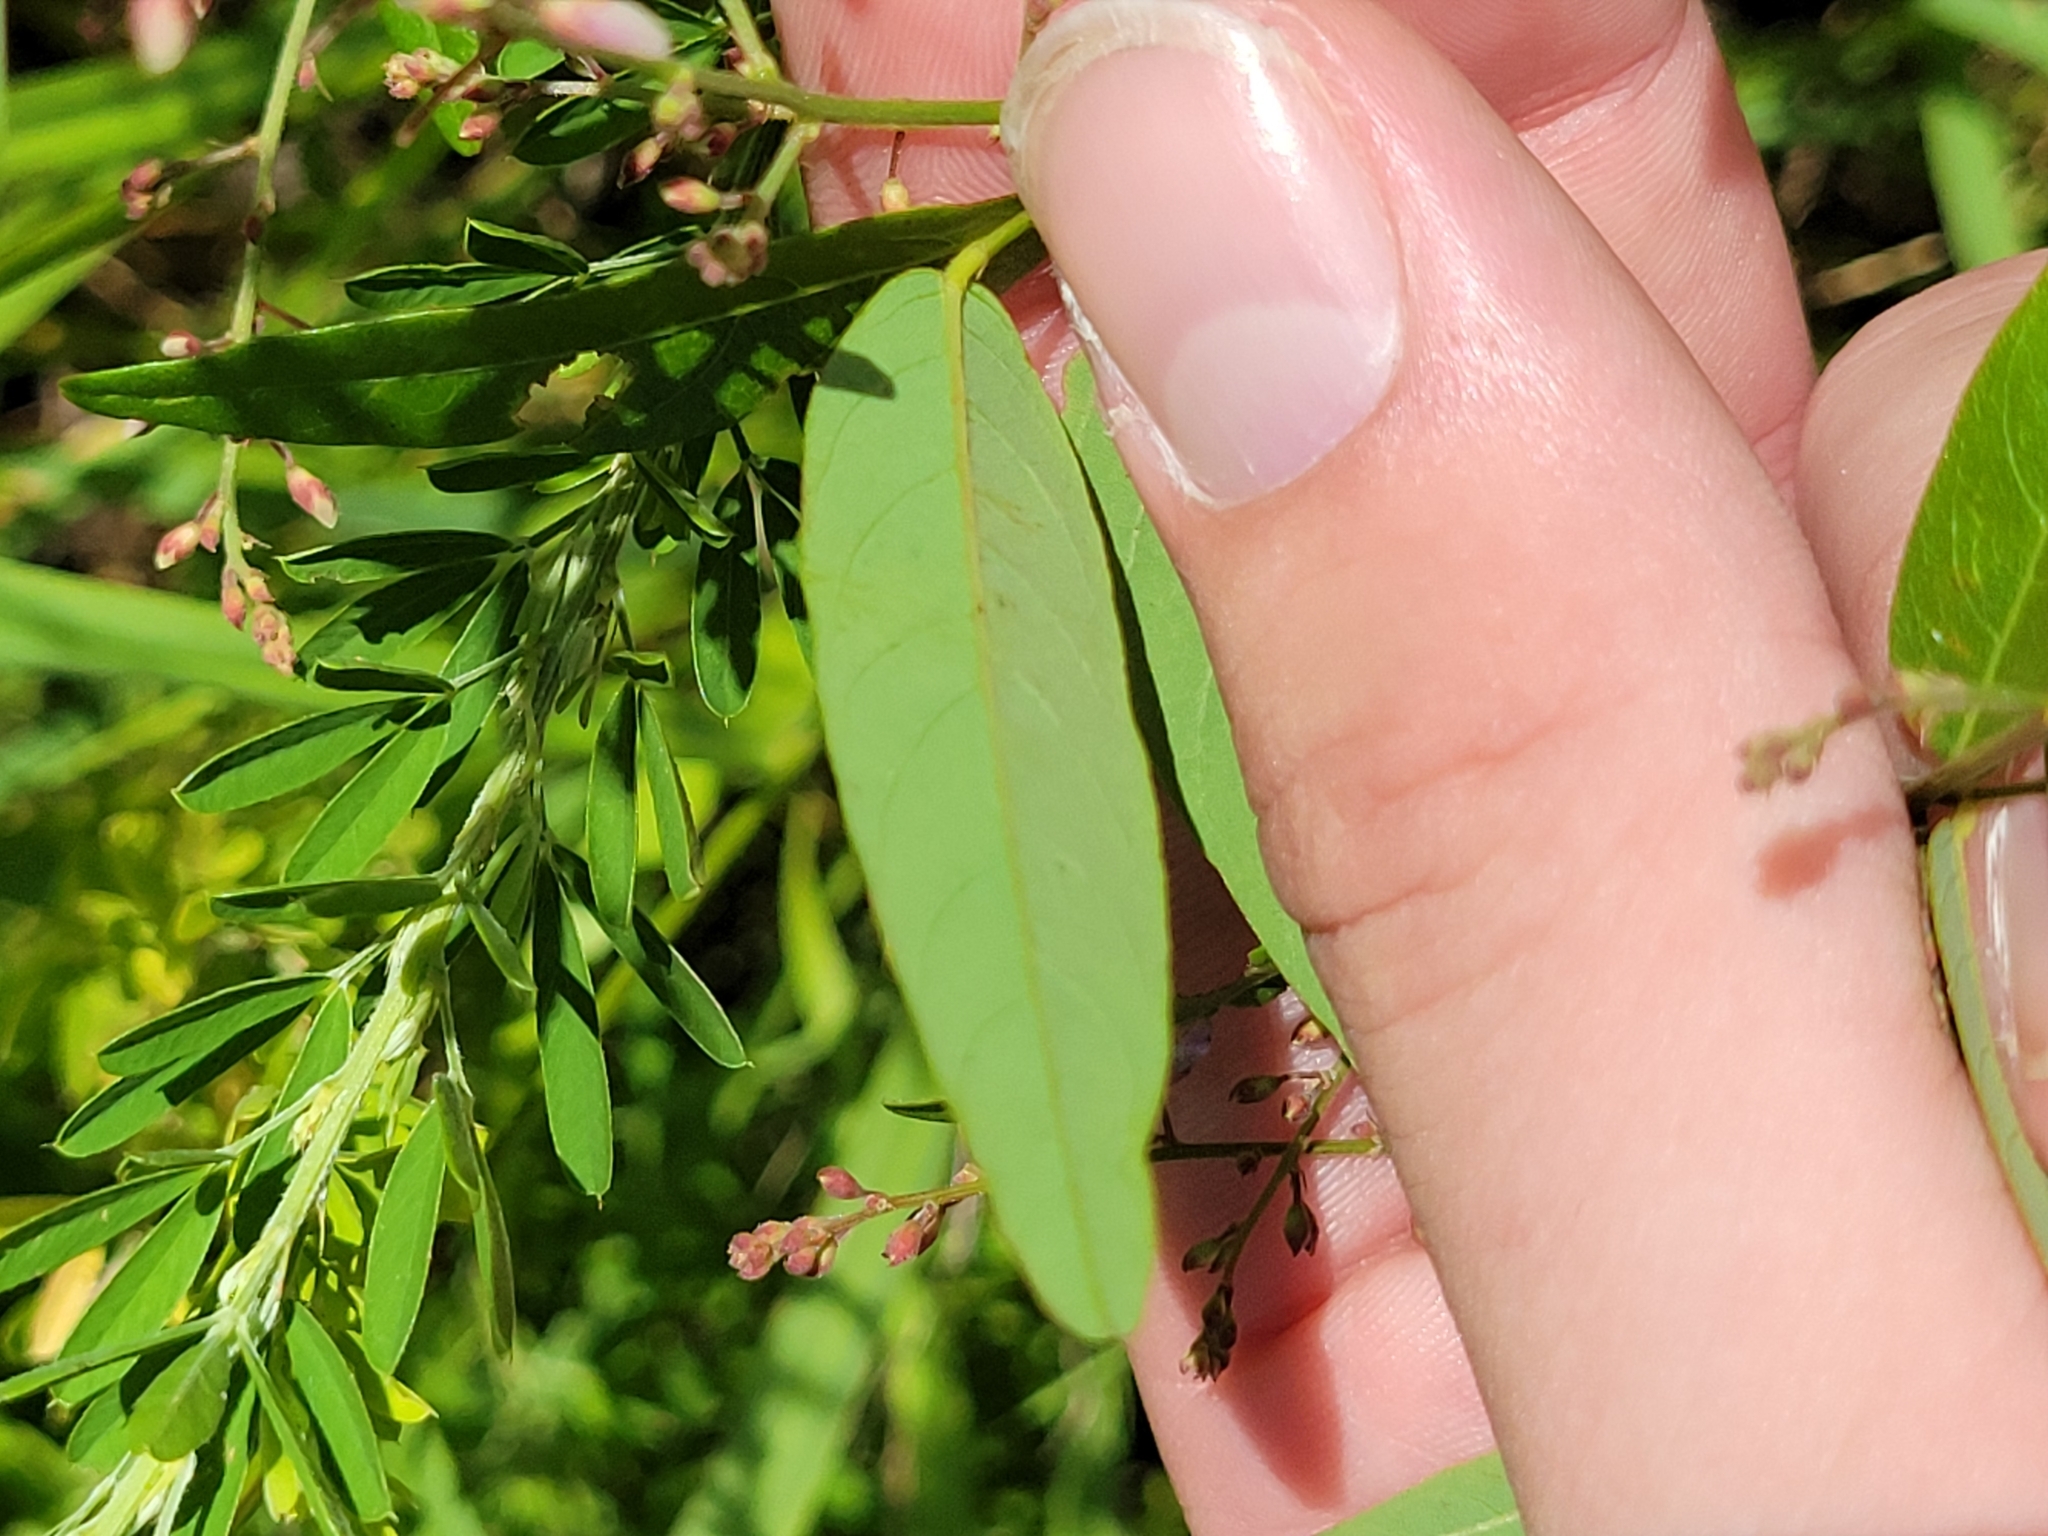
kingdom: Plantae
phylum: Tracheophyta
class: Magnoliopsida
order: Fabales
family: Fabaceae
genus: Desmodium
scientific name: Desmodium paniculatum
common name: Panicled tick-clover
